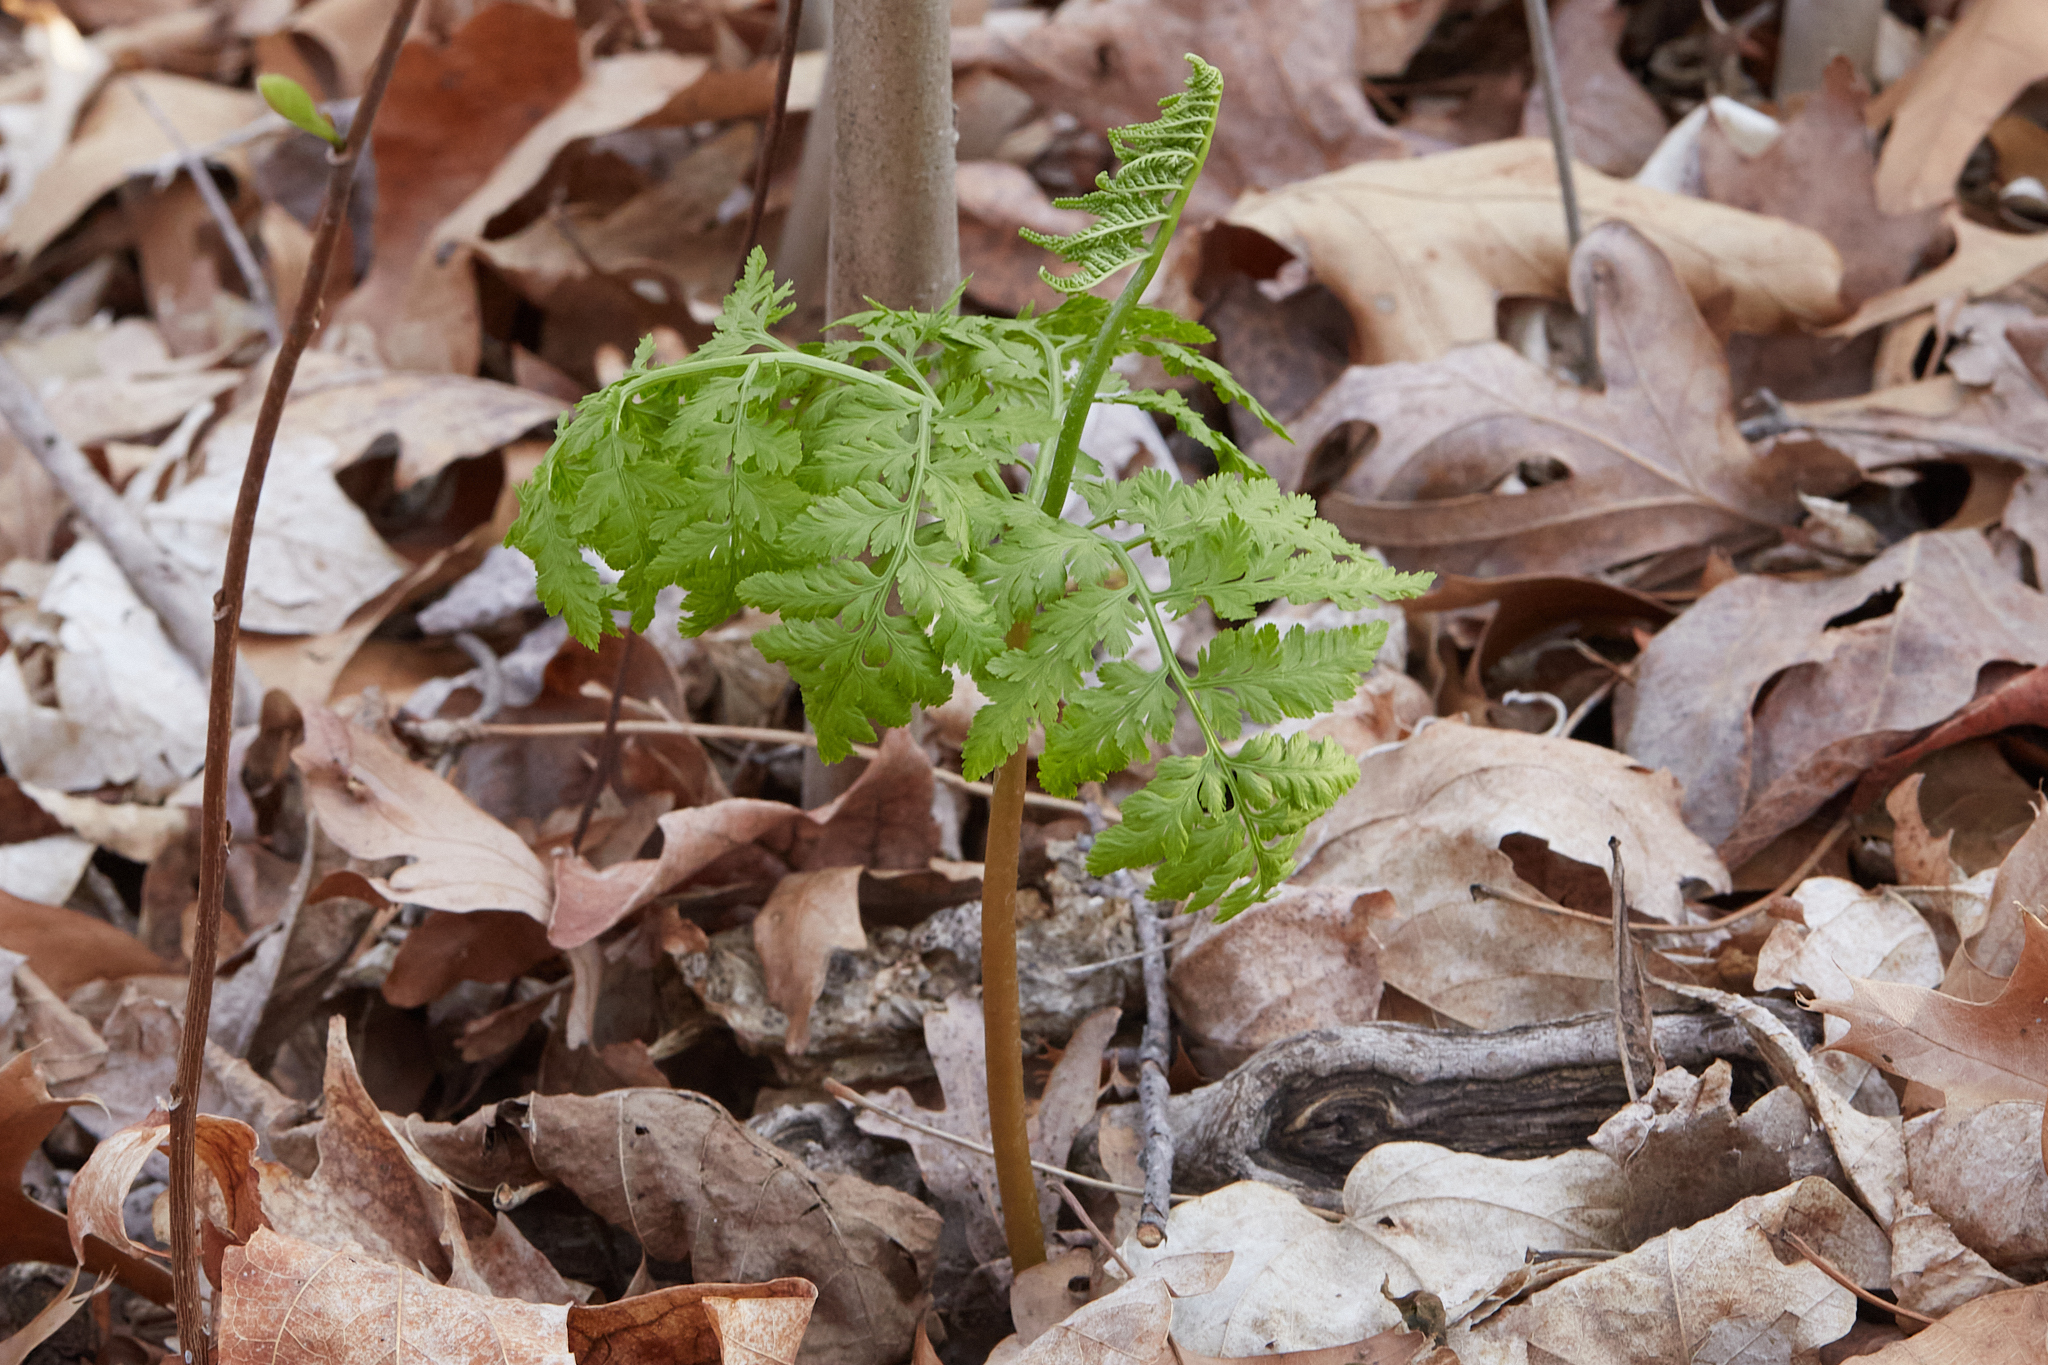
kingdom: Plantae
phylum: Tracheophyta
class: Polypodiopsida
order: Ophioglossales
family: Ophioglossaceae
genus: Botrypus
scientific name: Botrypus virginianus
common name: Common grapefern
